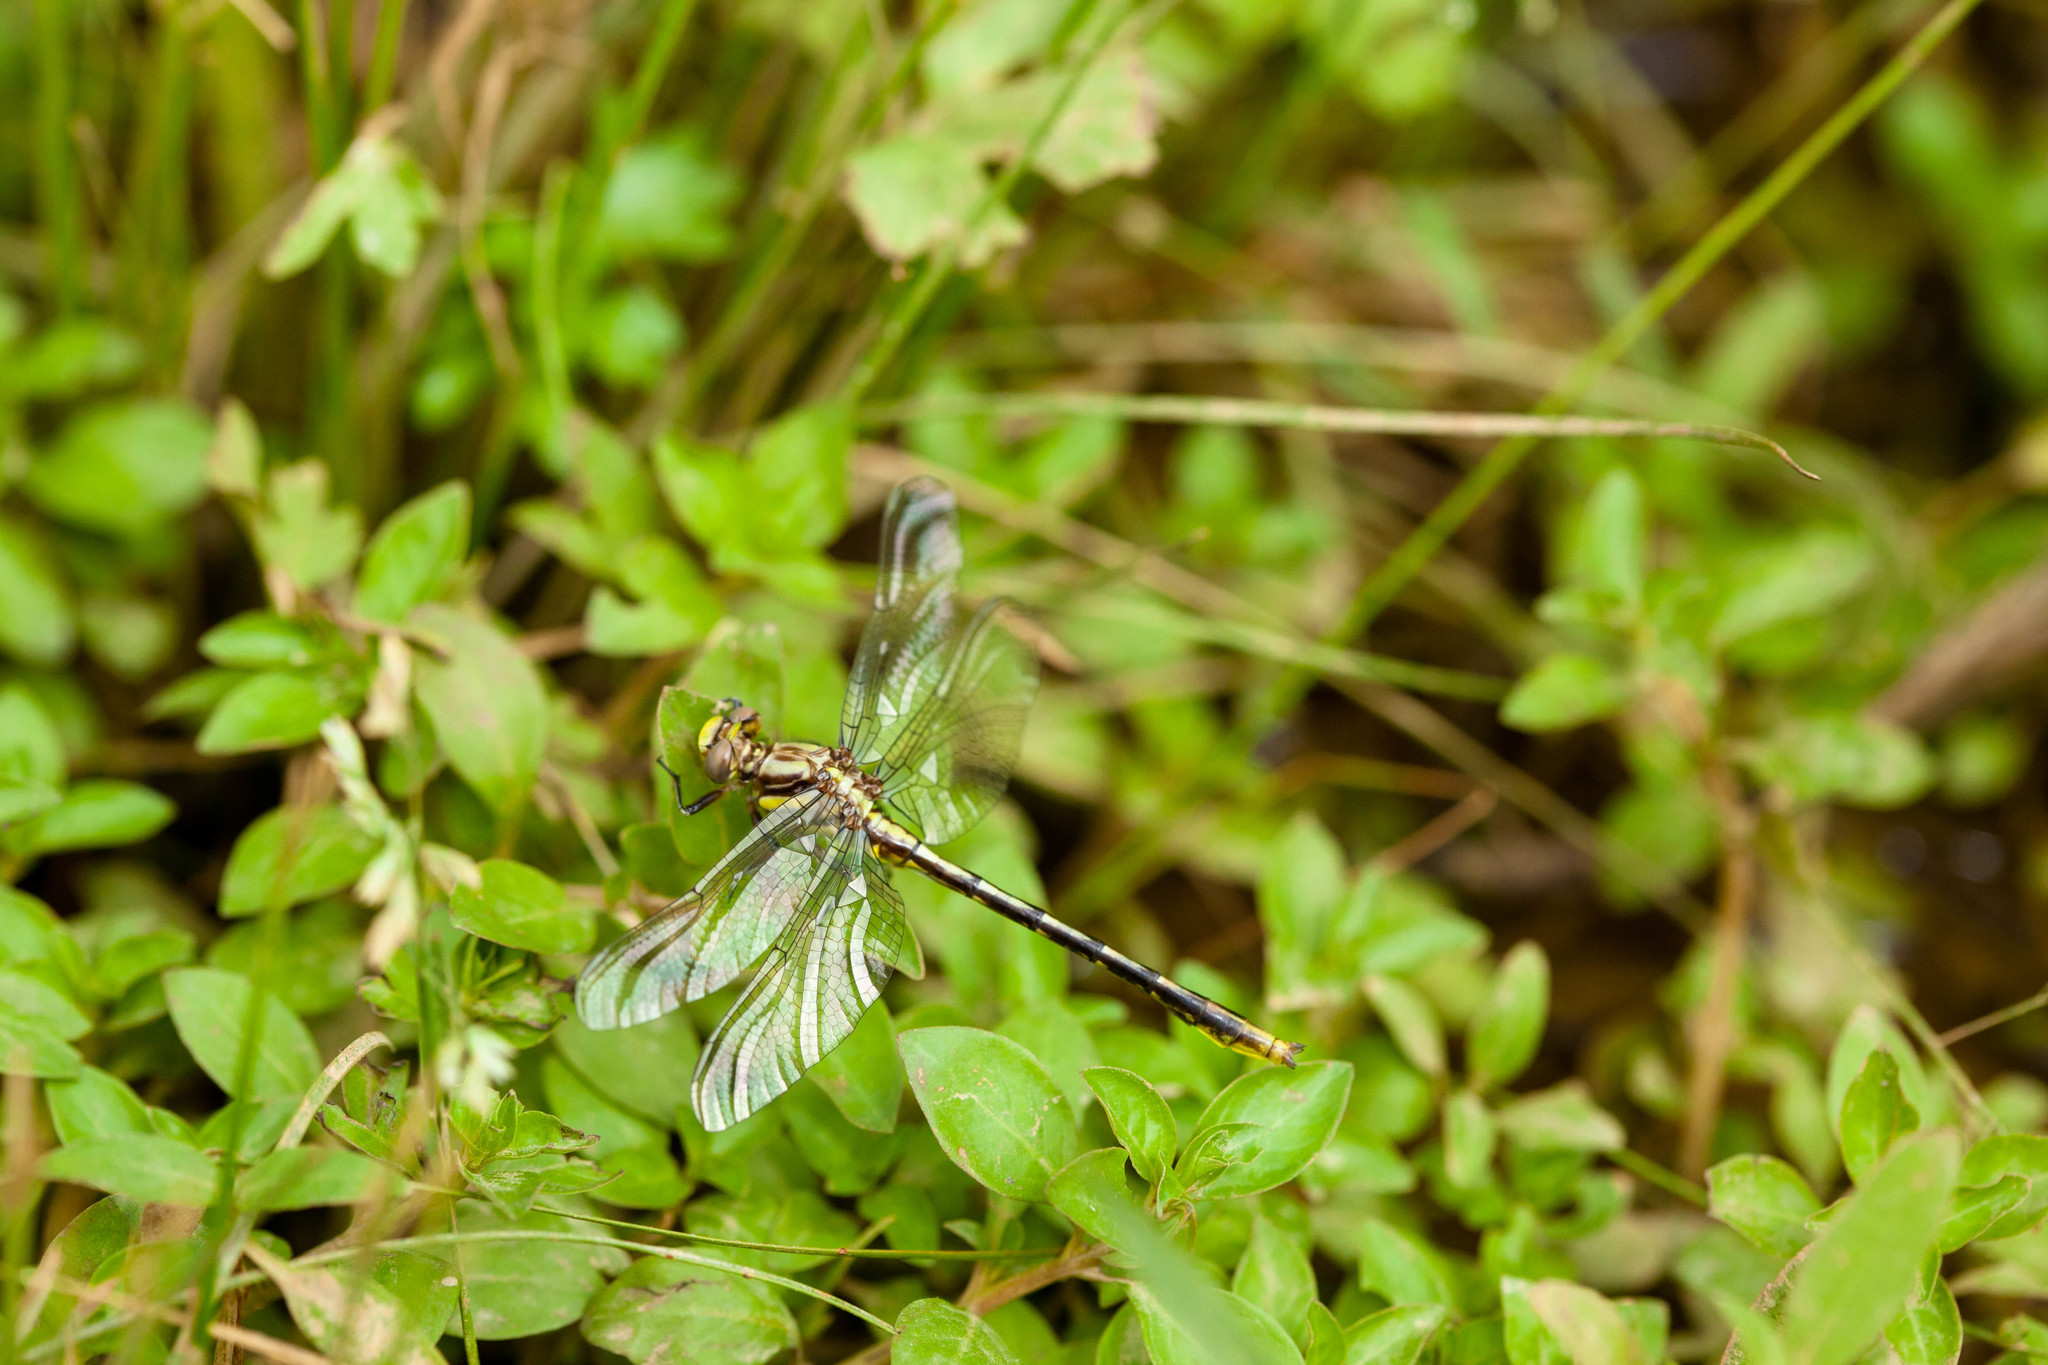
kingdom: Animalia
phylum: Arthropoda
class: Insecta
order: Odonata
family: Gomphidae
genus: Phanogomphus
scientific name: Phanogomphus exilis
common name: Lancet clubtail
